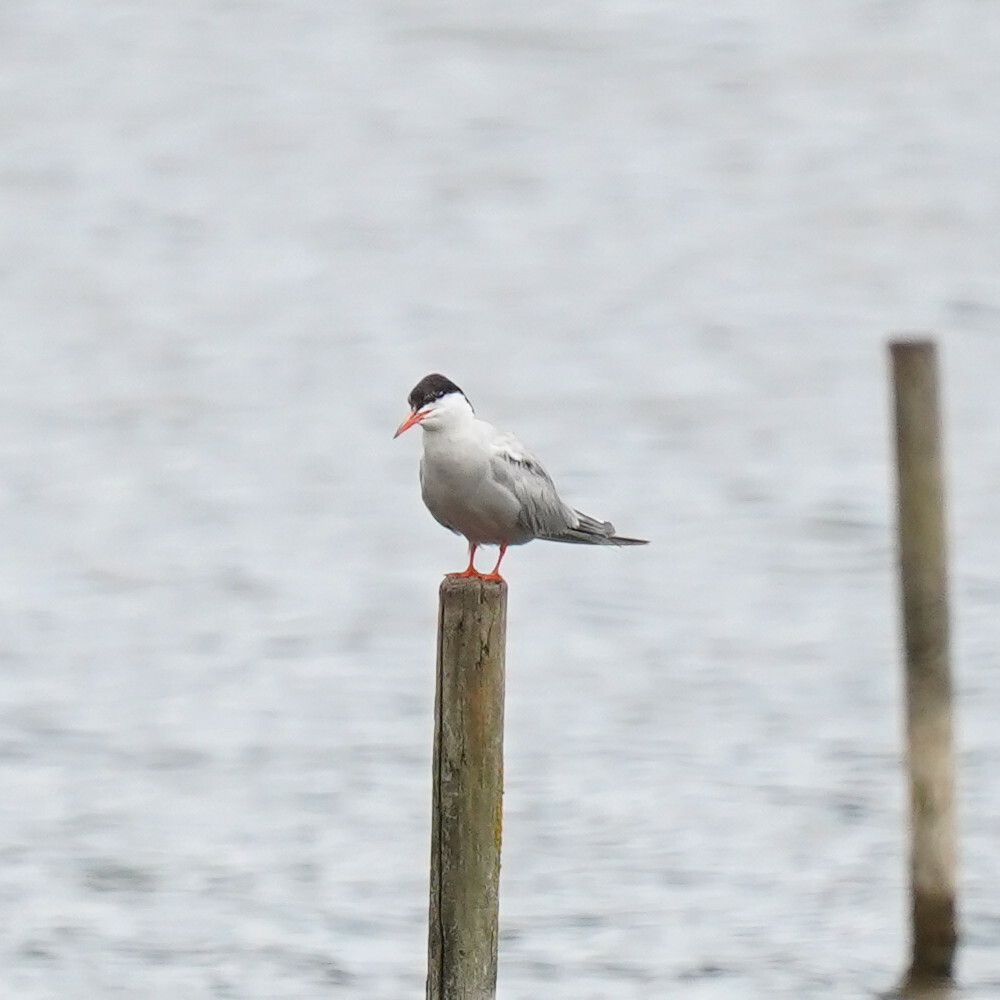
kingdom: Animalia
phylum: Chordata
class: Aves
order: Charadriiformes
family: Laridae
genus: Sterna
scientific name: Sterna hirundo
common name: Common tern
